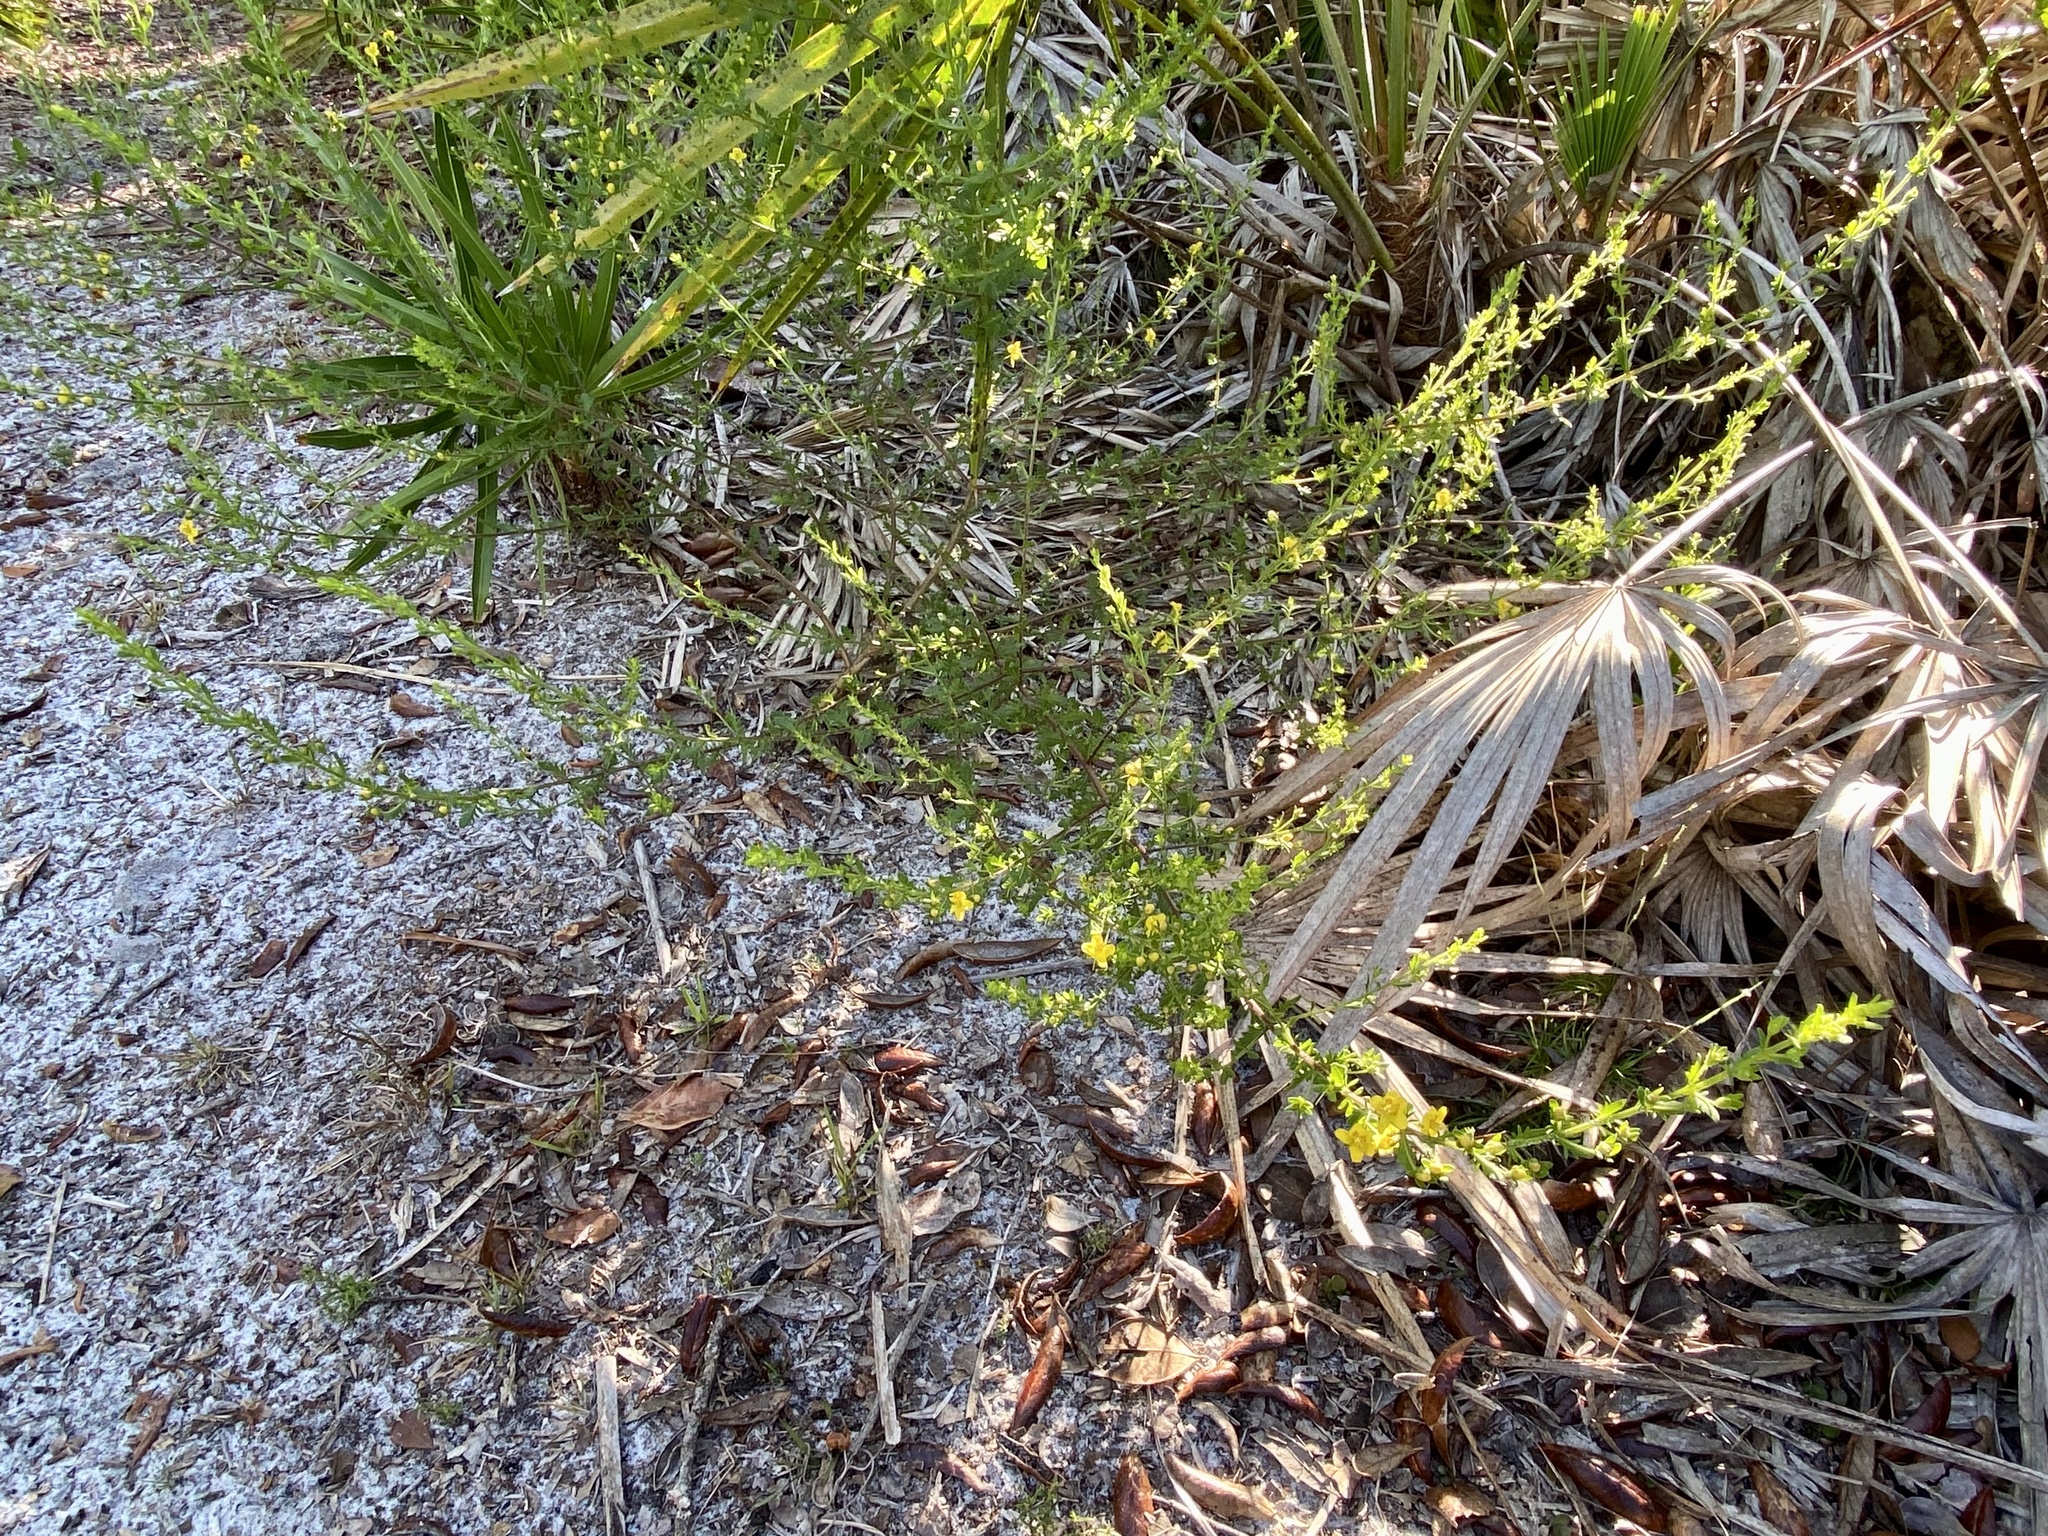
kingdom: Plantae
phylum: Tracheophyta
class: Magnoliopsida
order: Lamiales
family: Orobanchaceae
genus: Seymeria
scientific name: Seymeria pectinata
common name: Piedmont black-senna
